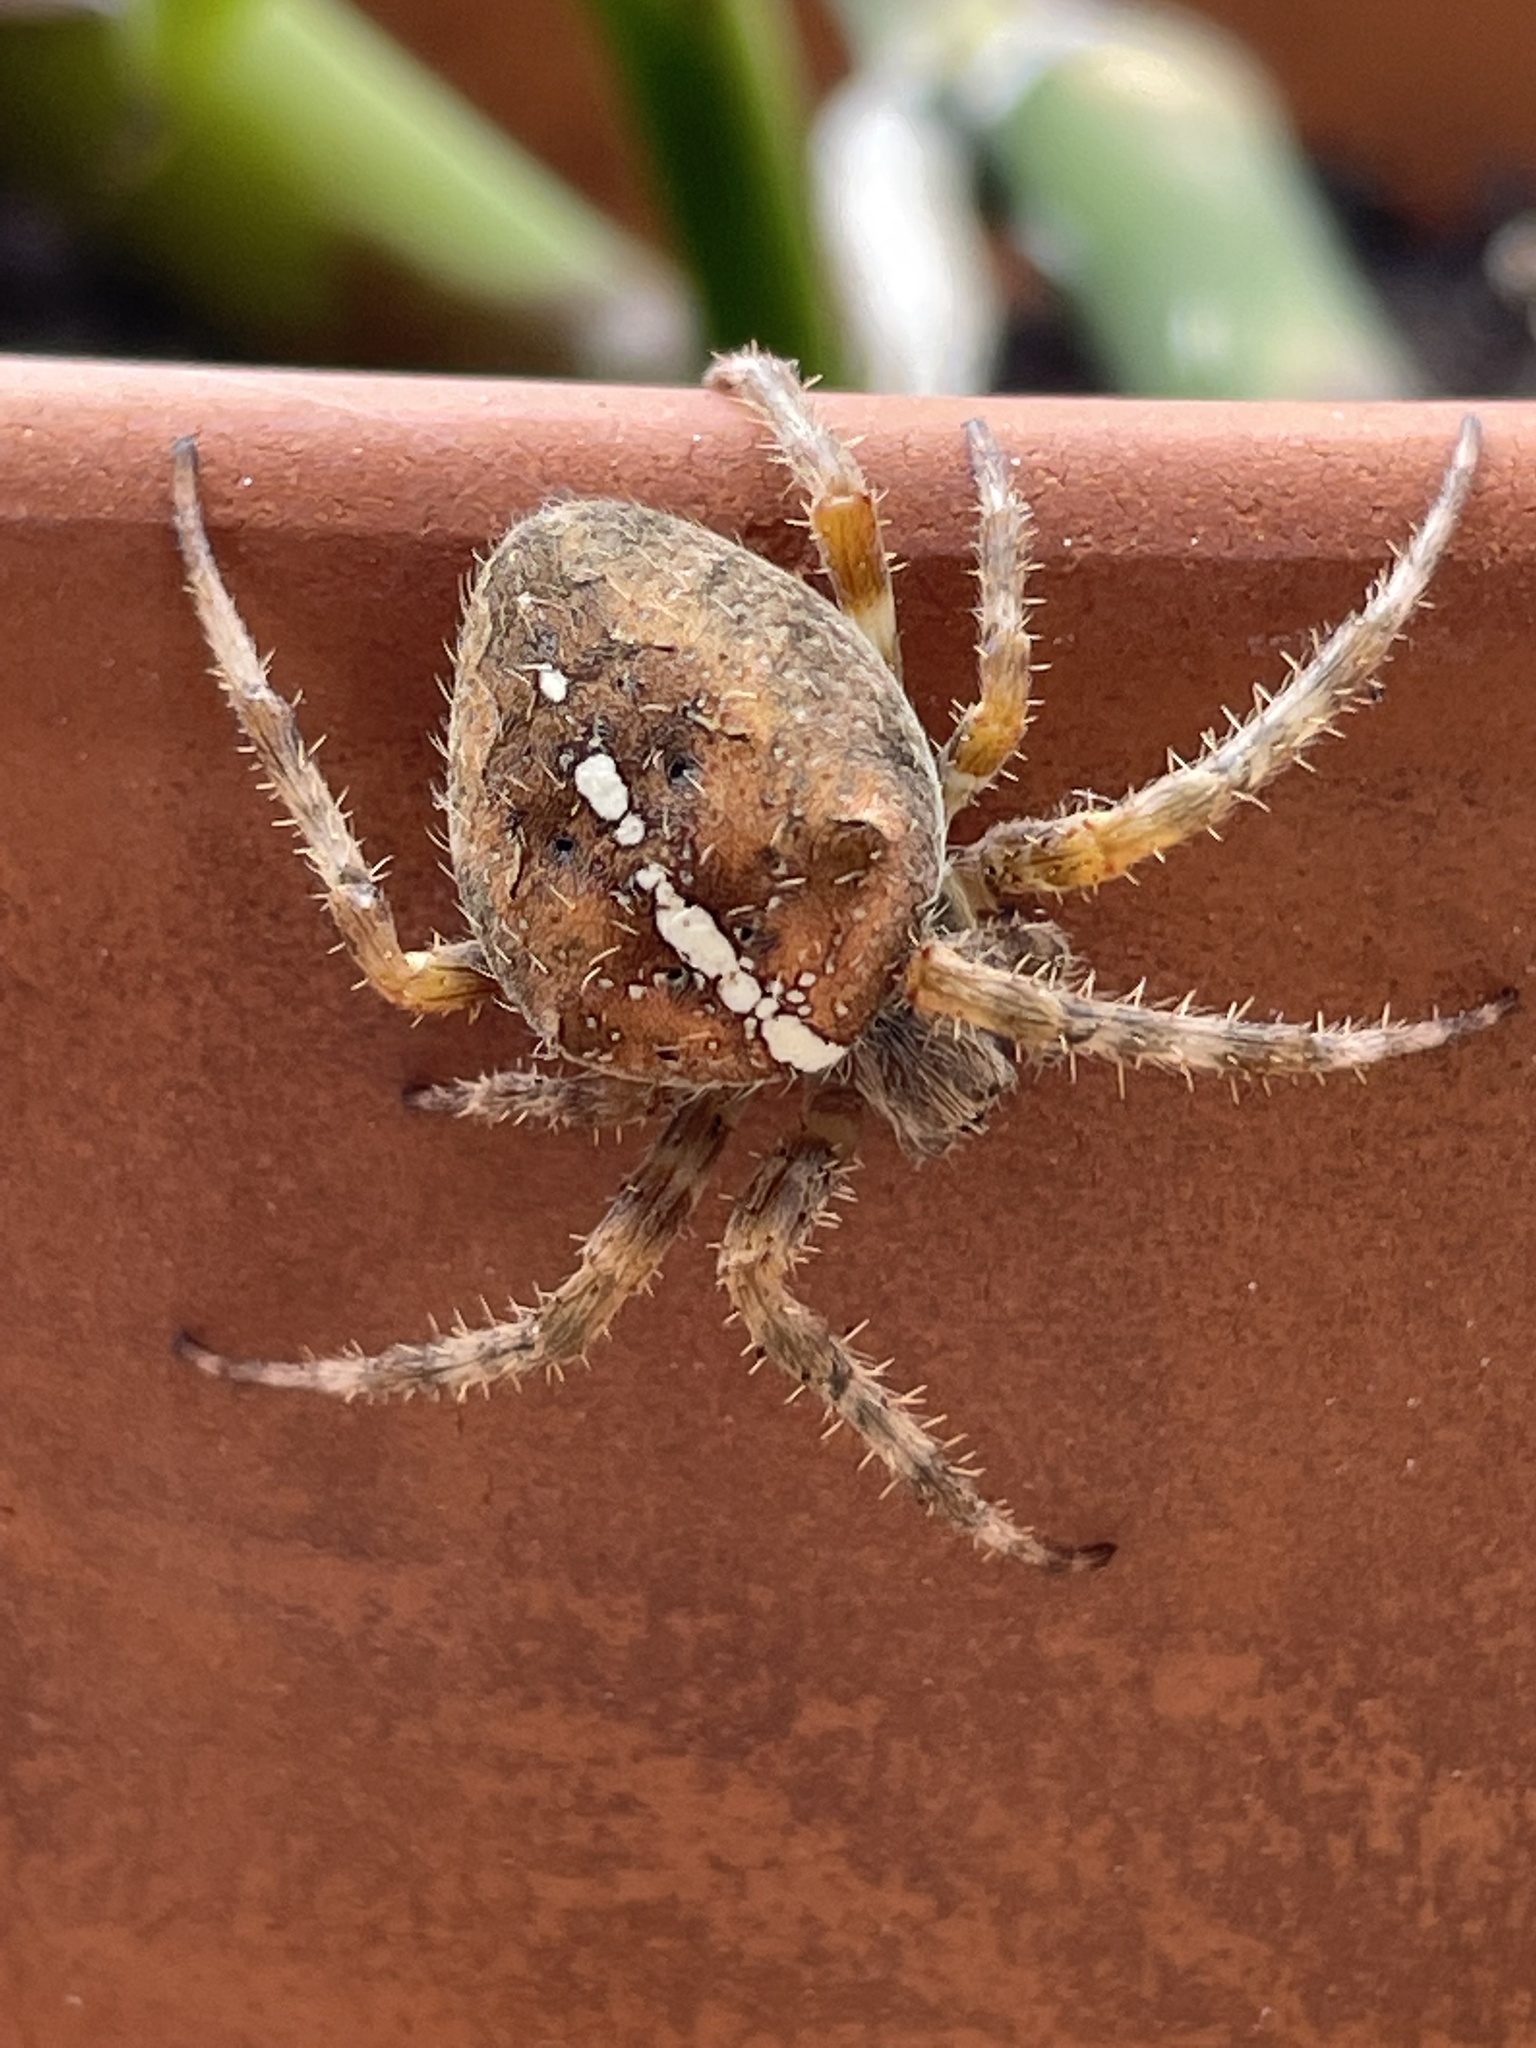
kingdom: Animalia
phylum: Arthropoda
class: Arachnida
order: Araneae
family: Araneidae
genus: Araneus
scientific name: Araneus diadematus
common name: Cross orbweaver
